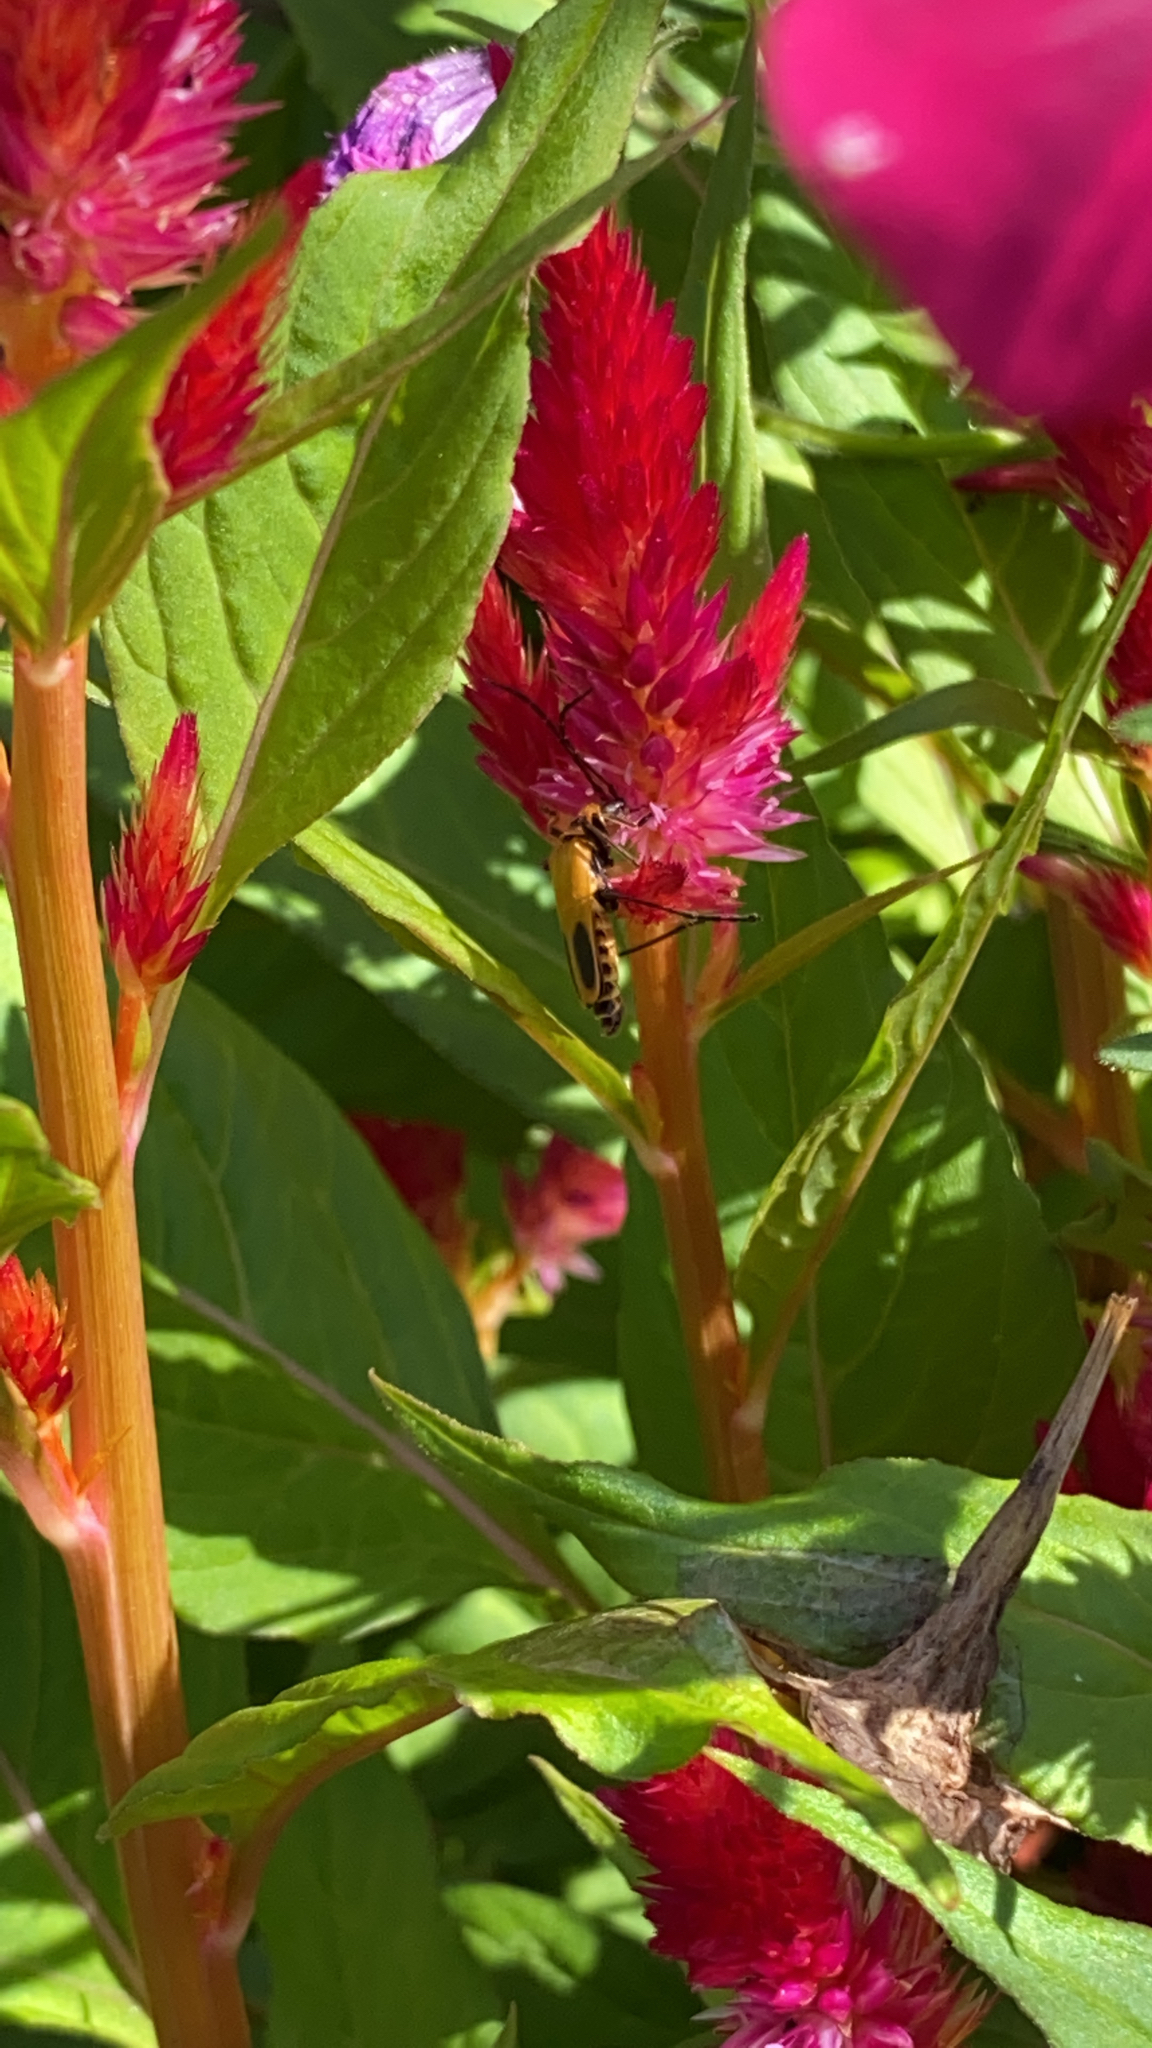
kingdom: Animalia
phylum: Arthropoda
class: Insecta
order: Coleoptera
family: Cantharidae
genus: Chauliognathus
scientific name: Chauliognathus pensylvanicus
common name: Goldenrod soldier beetle
